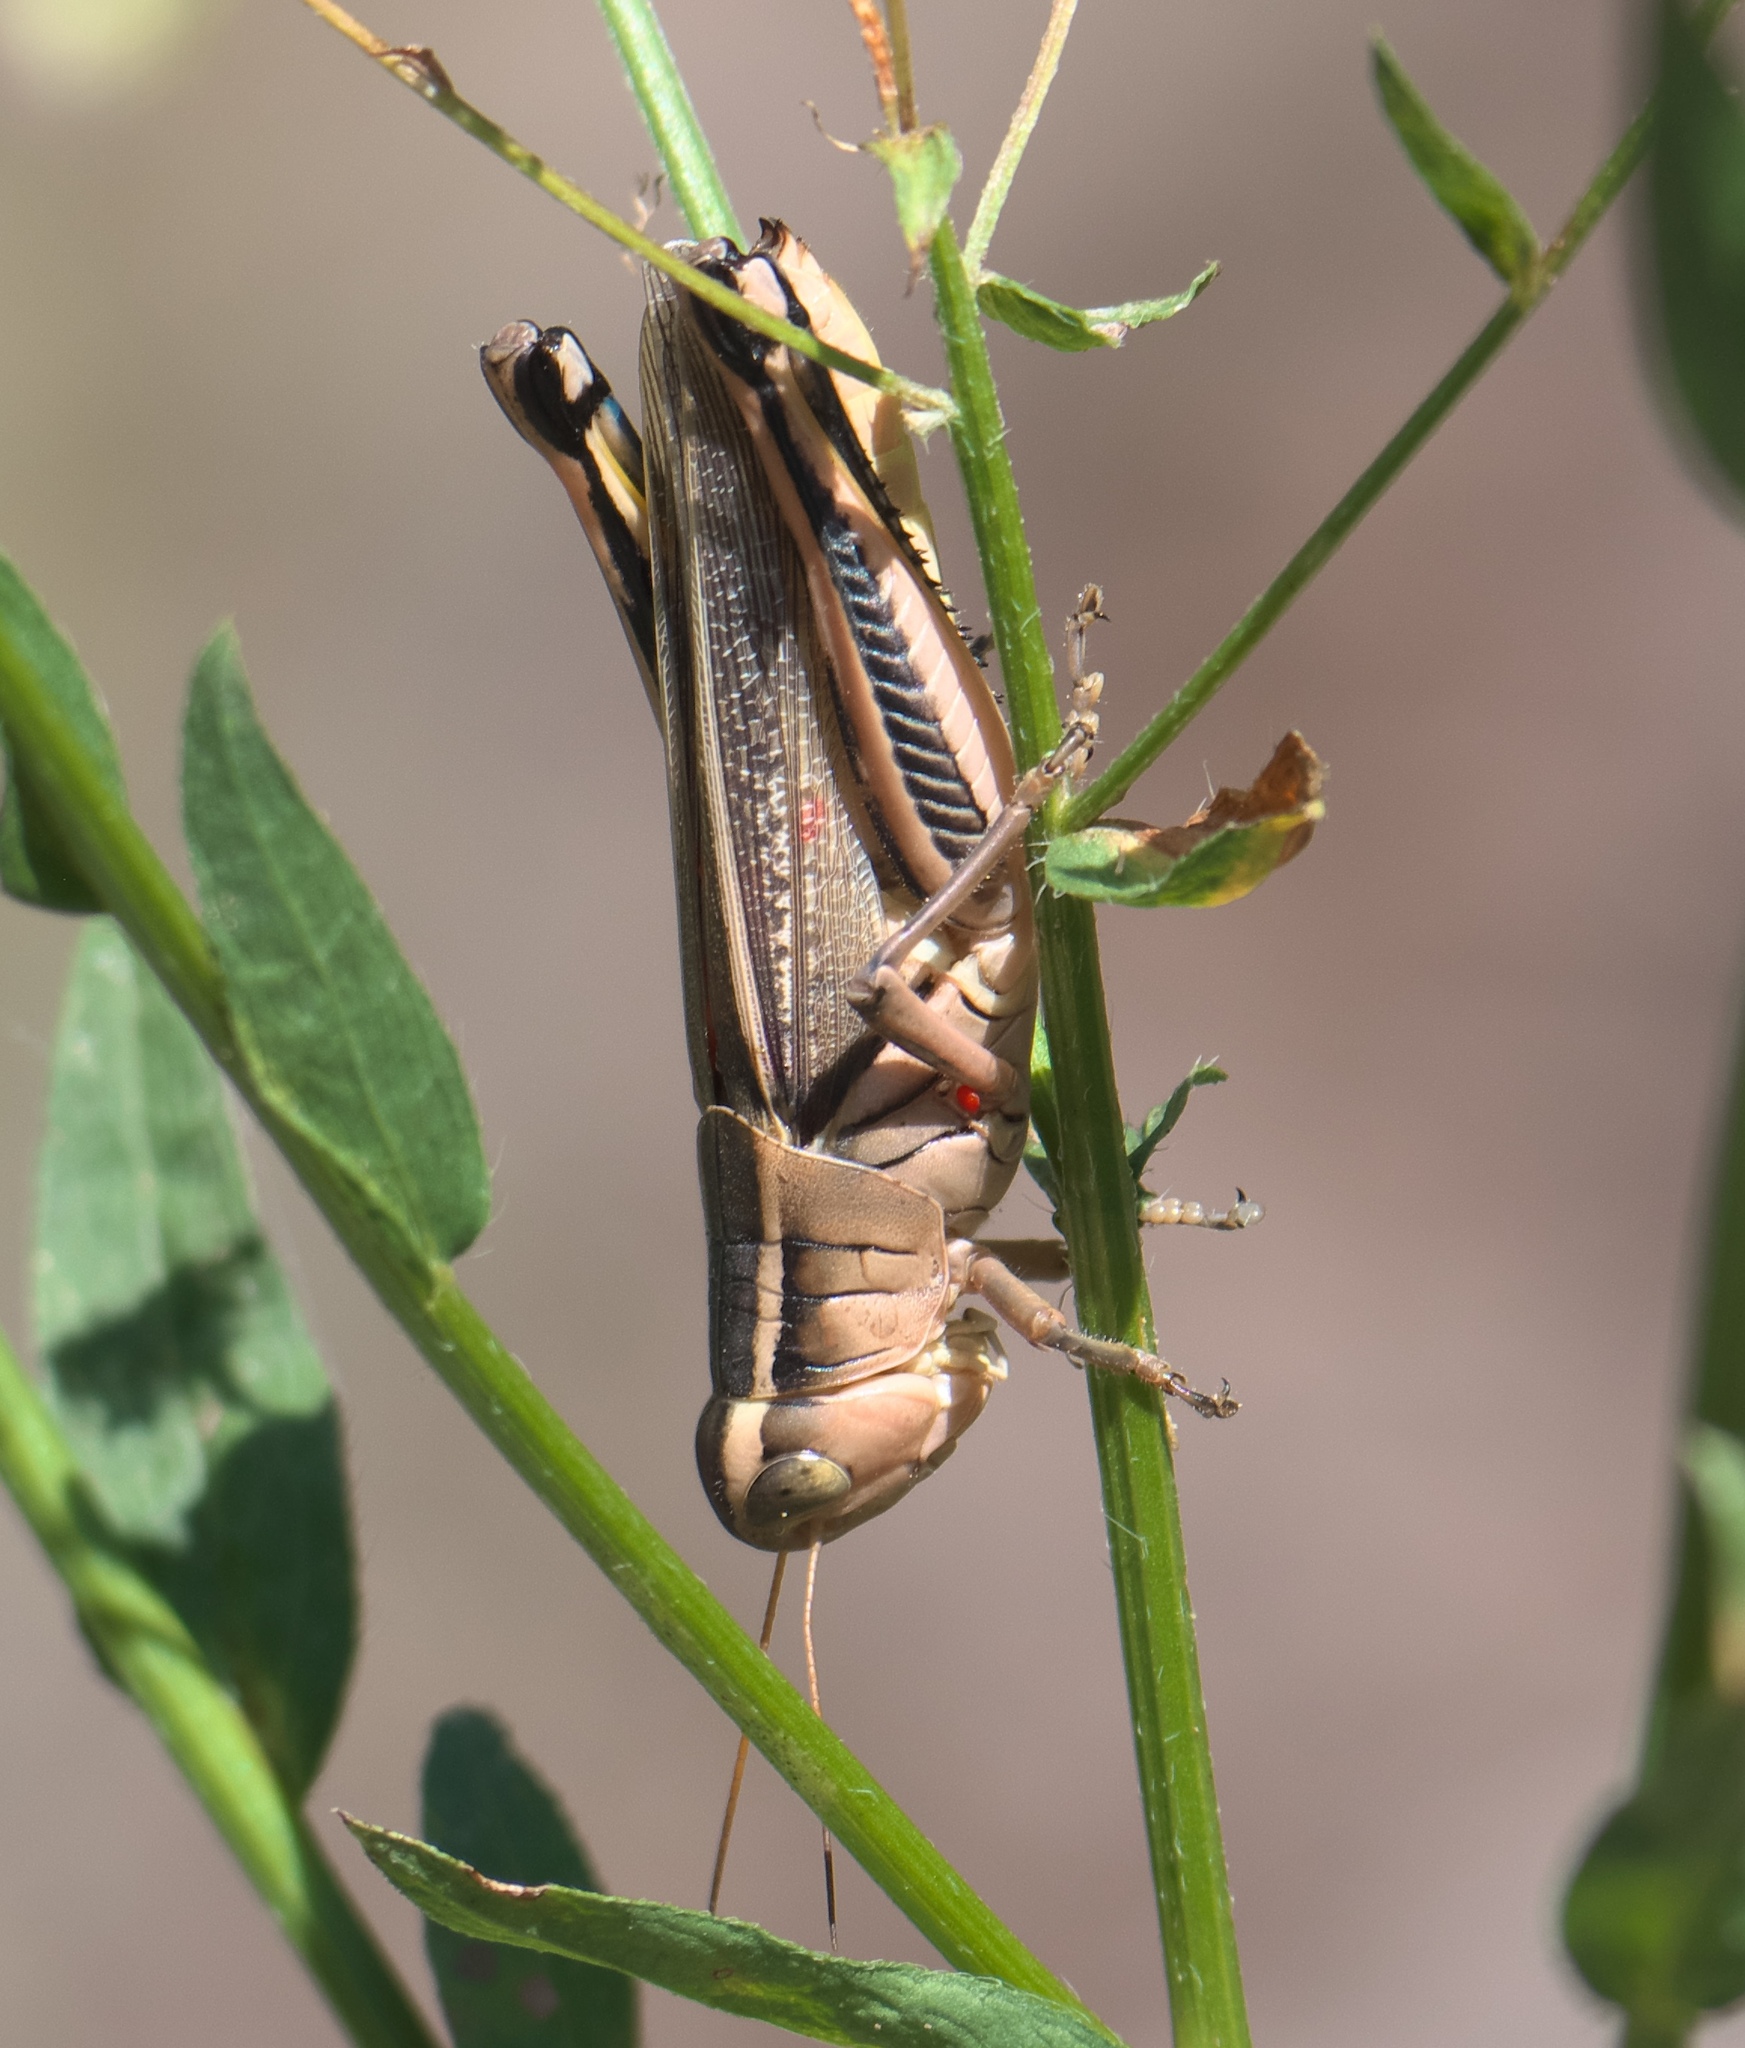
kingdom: Animalia
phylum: Arthropoda
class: Insecta
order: Orthoptera
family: Acrididae
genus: Melanoplus
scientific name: Melanoplus bivittatus
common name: Two-striped grasshopper
